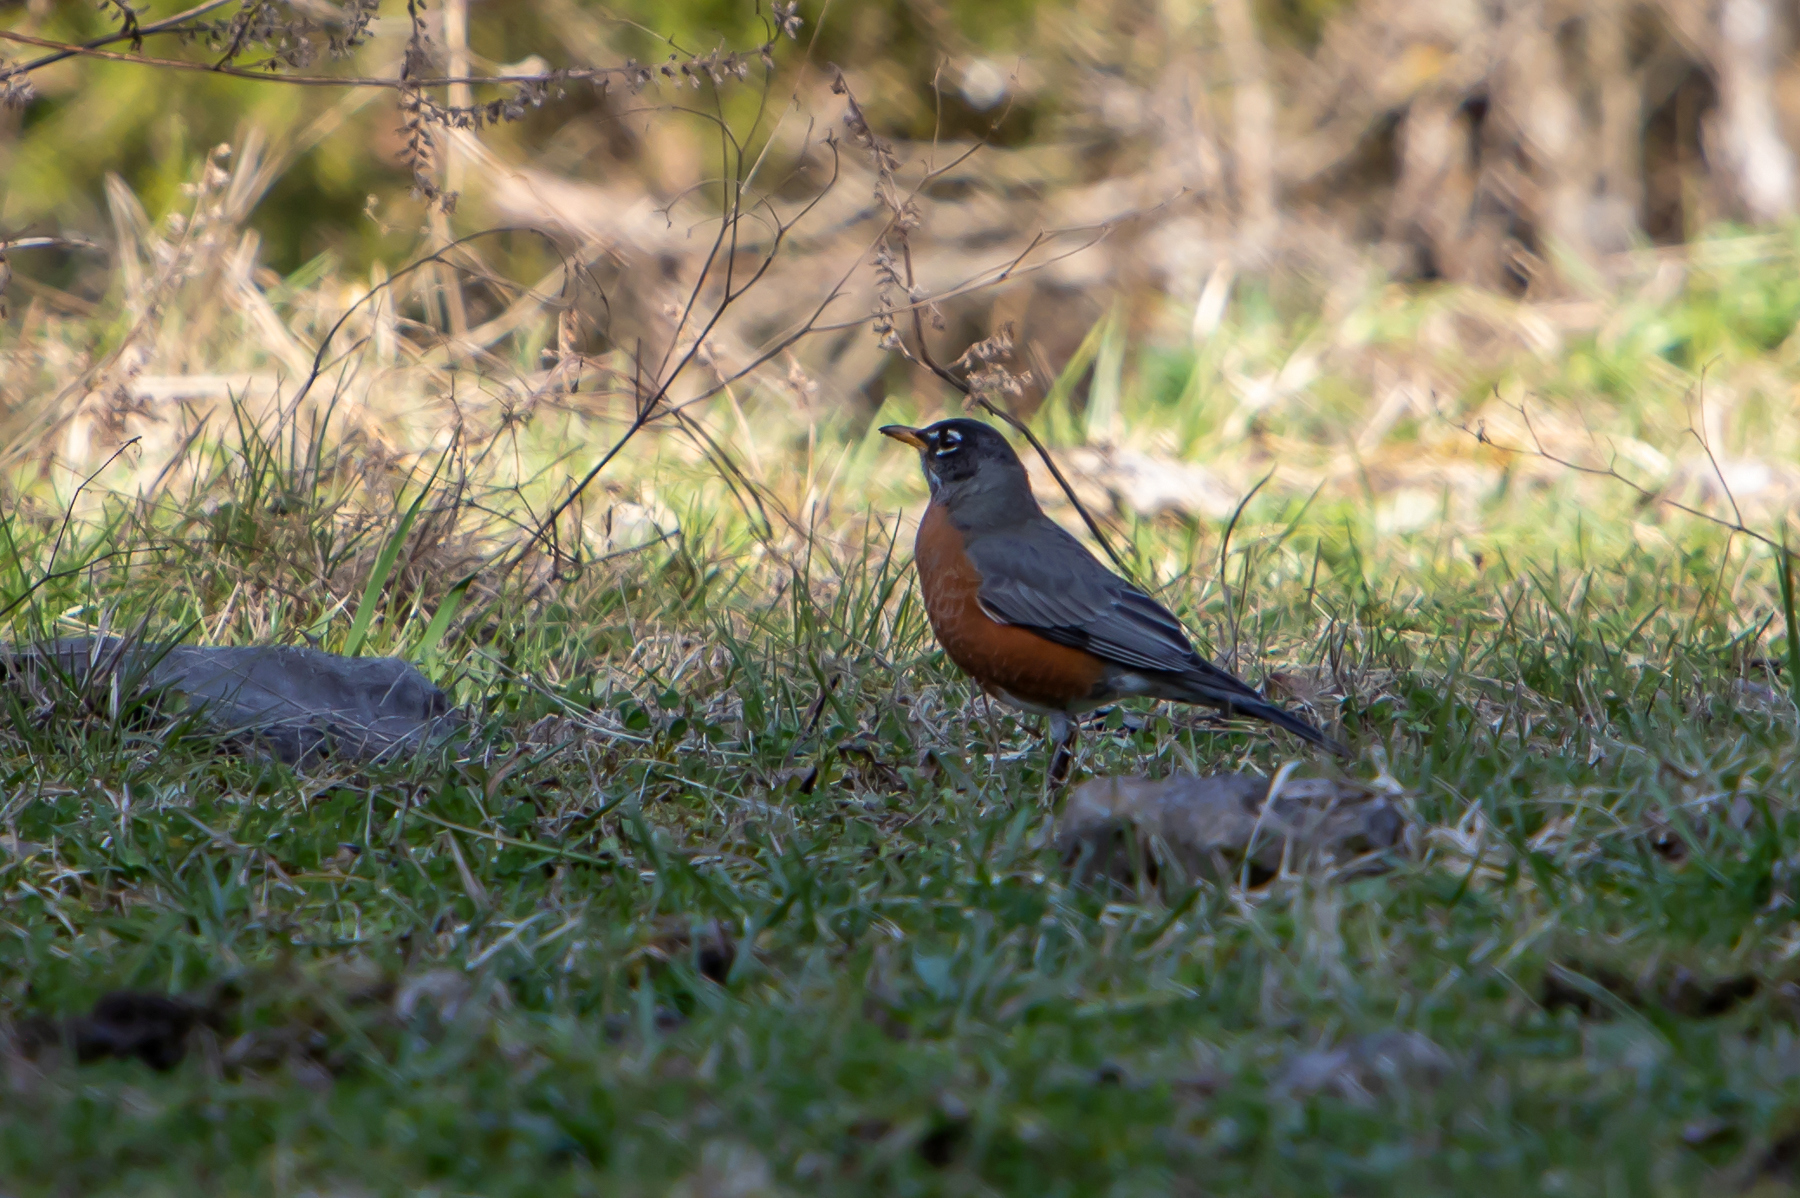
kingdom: Animalia
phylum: Chordata
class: Aves
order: Passeriformes
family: Turdidae
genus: Turdus
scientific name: Turdus migratorius
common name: American robin
